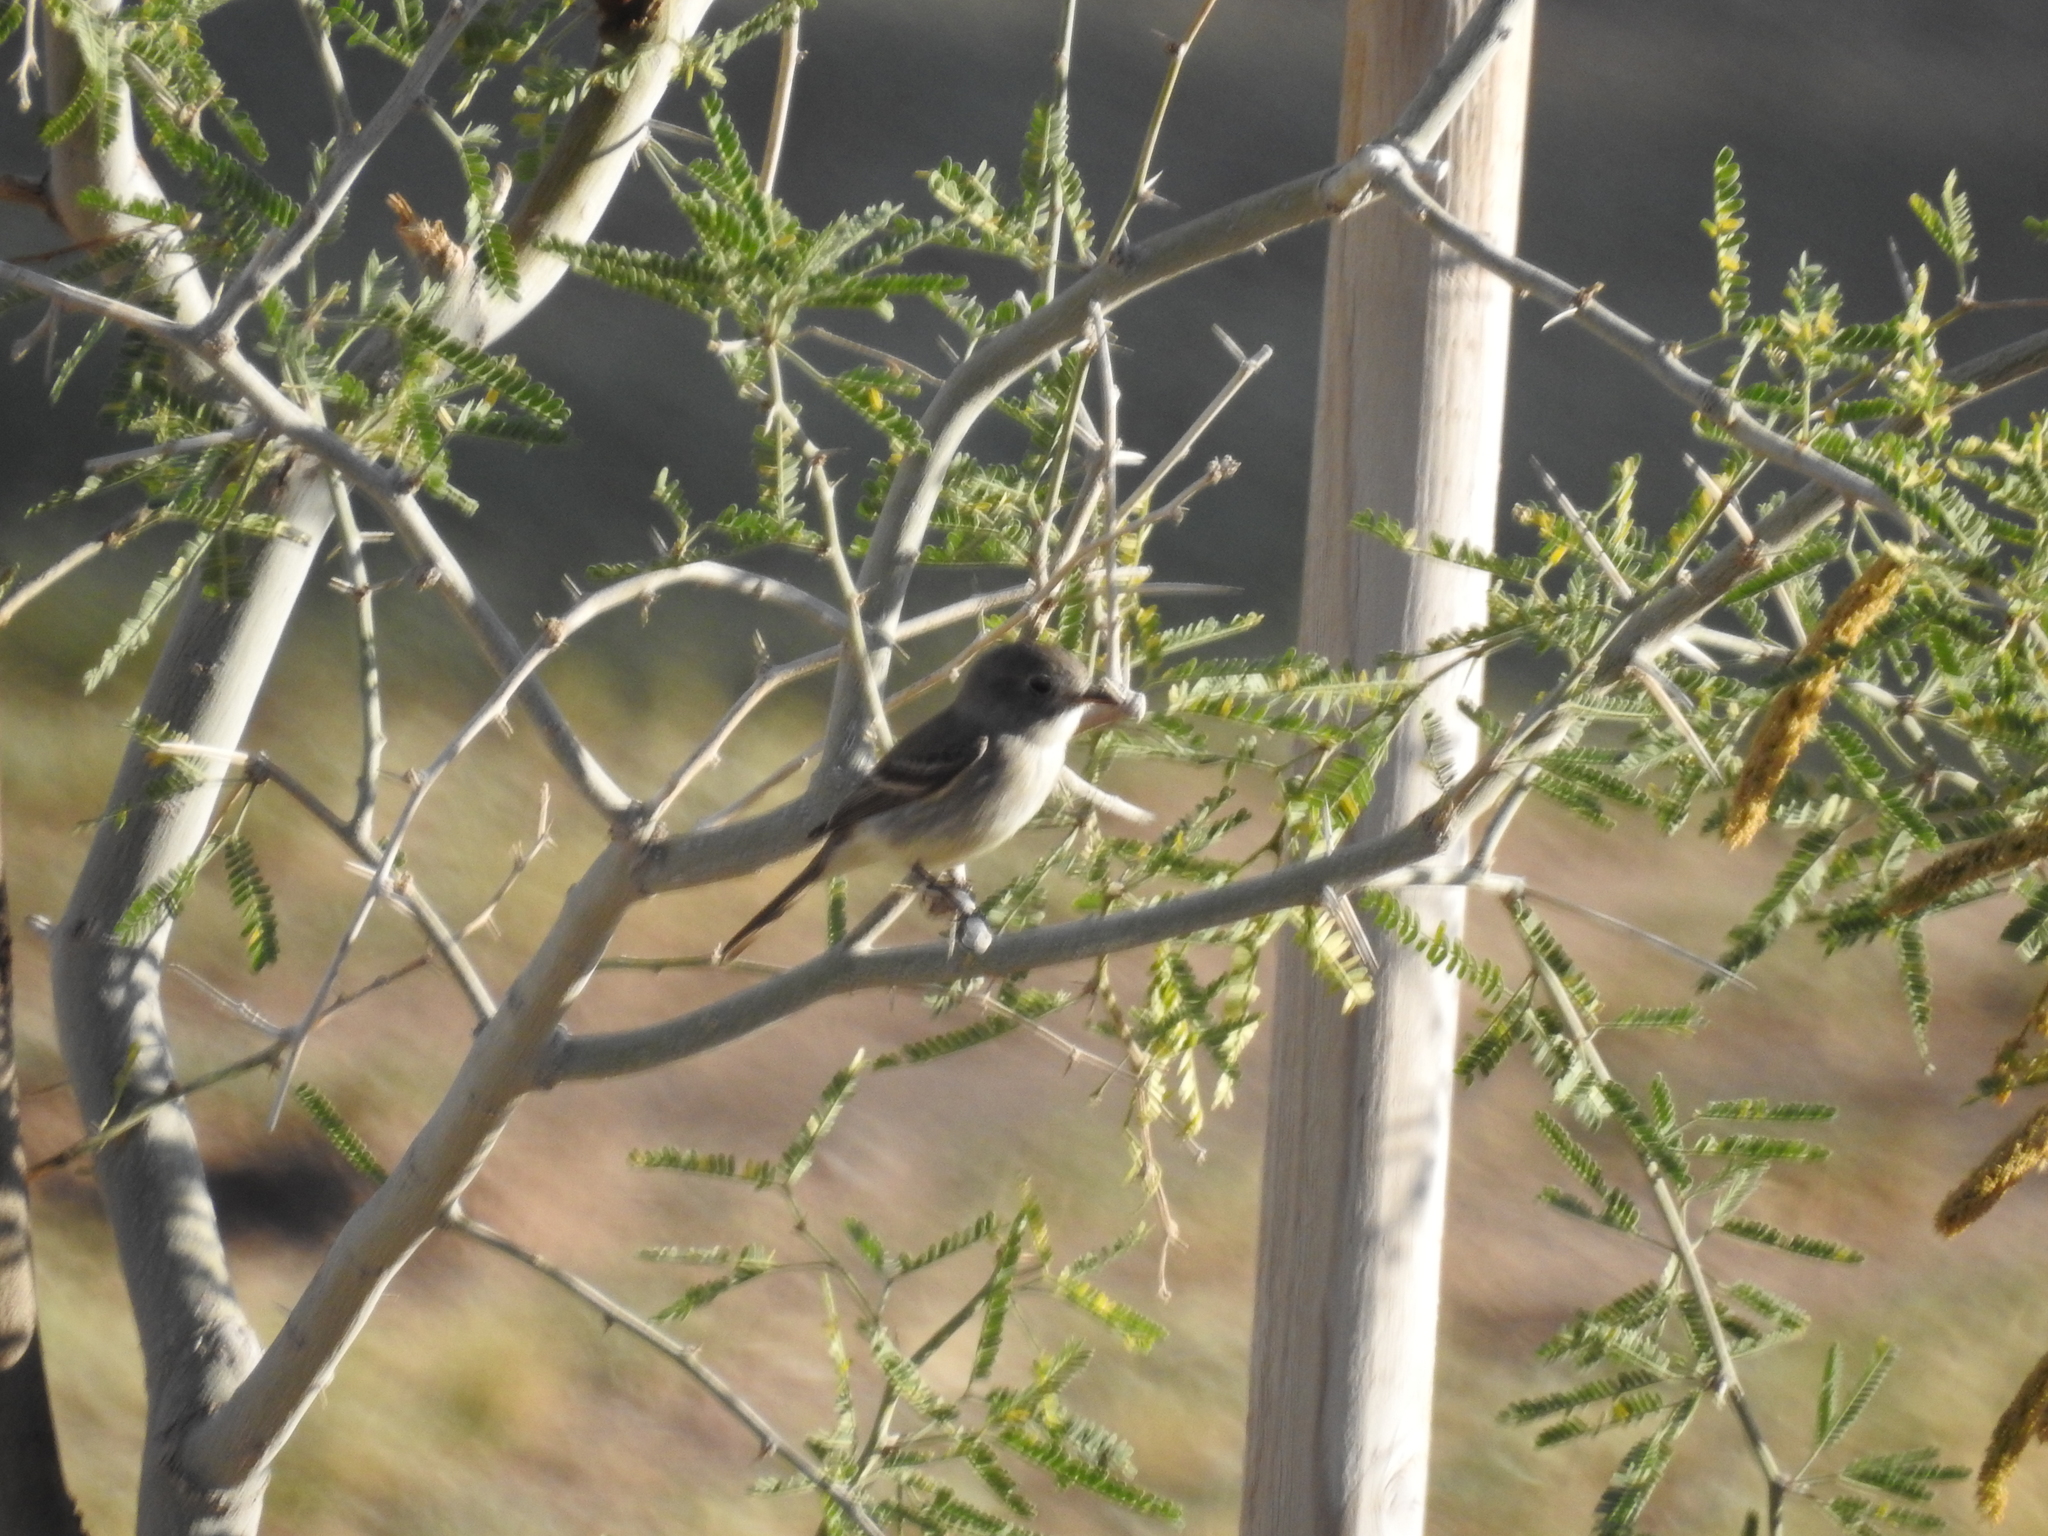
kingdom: Animalia
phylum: Chordata
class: Aves
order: Passeriformes
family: Tyrannidae
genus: Empidonax
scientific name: Empidonax
